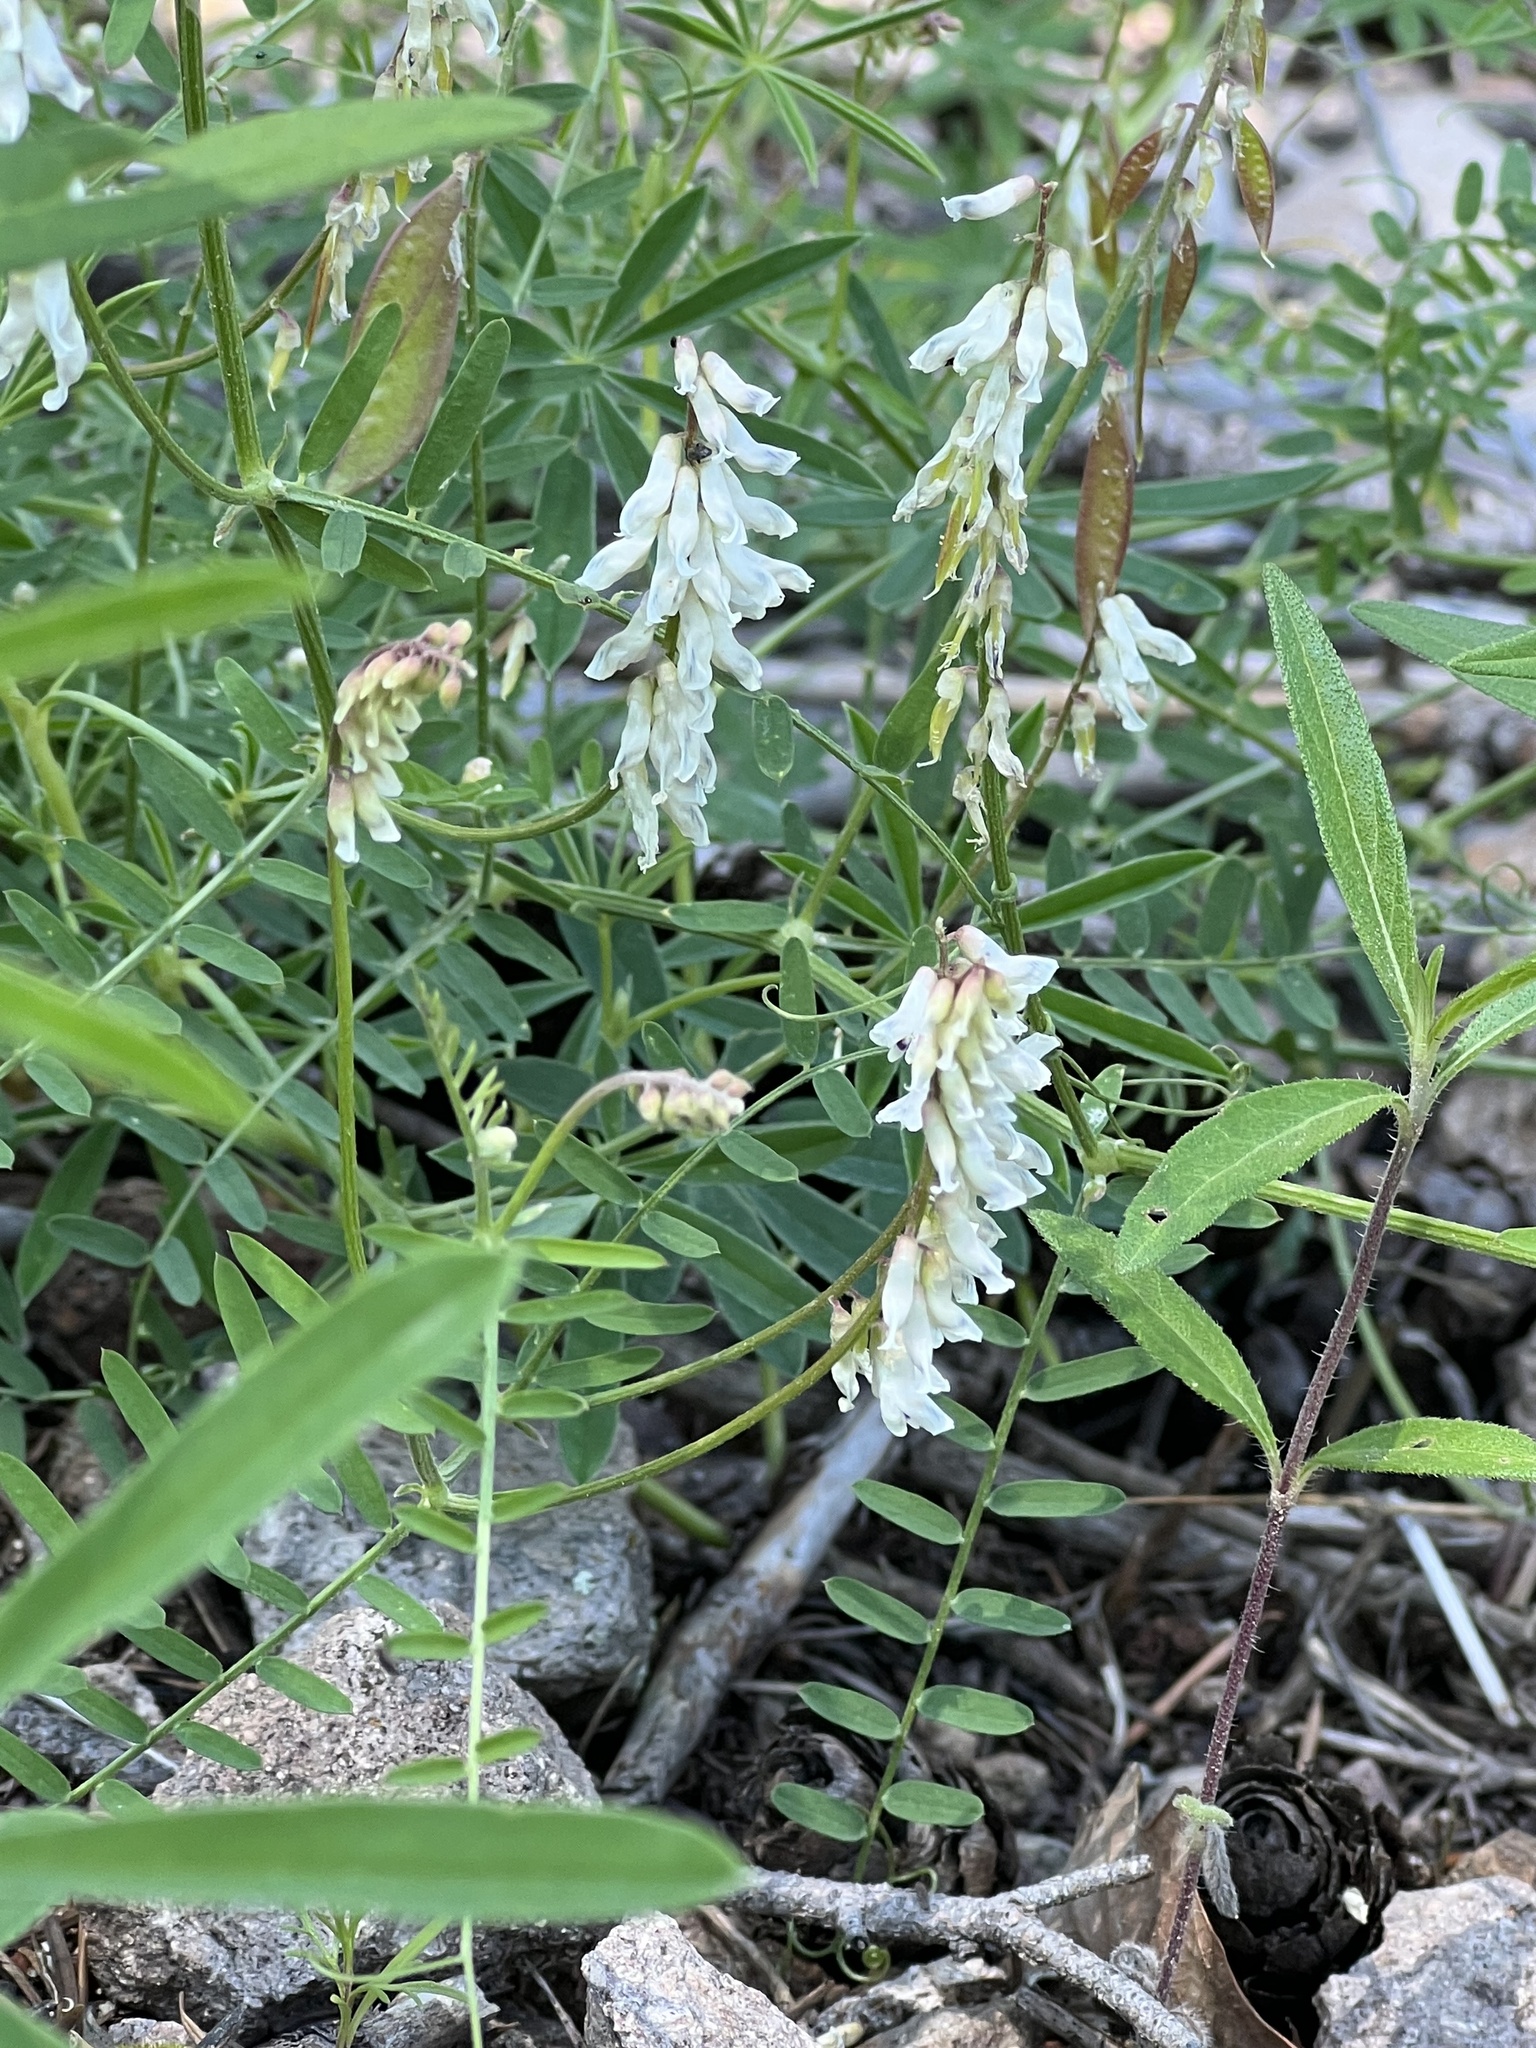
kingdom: Plantae
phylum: Tracheophyta
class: Magnoliopsida
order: Fabales
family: Fabaceae
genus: Vicia
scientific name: Vicia pulchella
